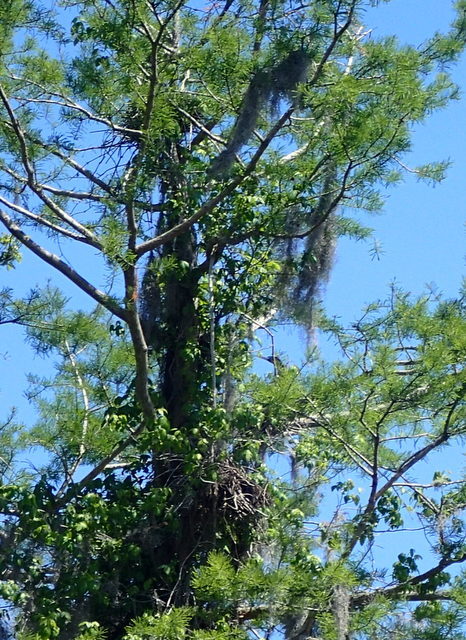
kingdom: Animalia
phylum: Chordata
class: Aves
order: Suliformes
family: Anhingidae
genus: Anhinga
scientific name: Anhinga anhinga
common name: Anhinga
